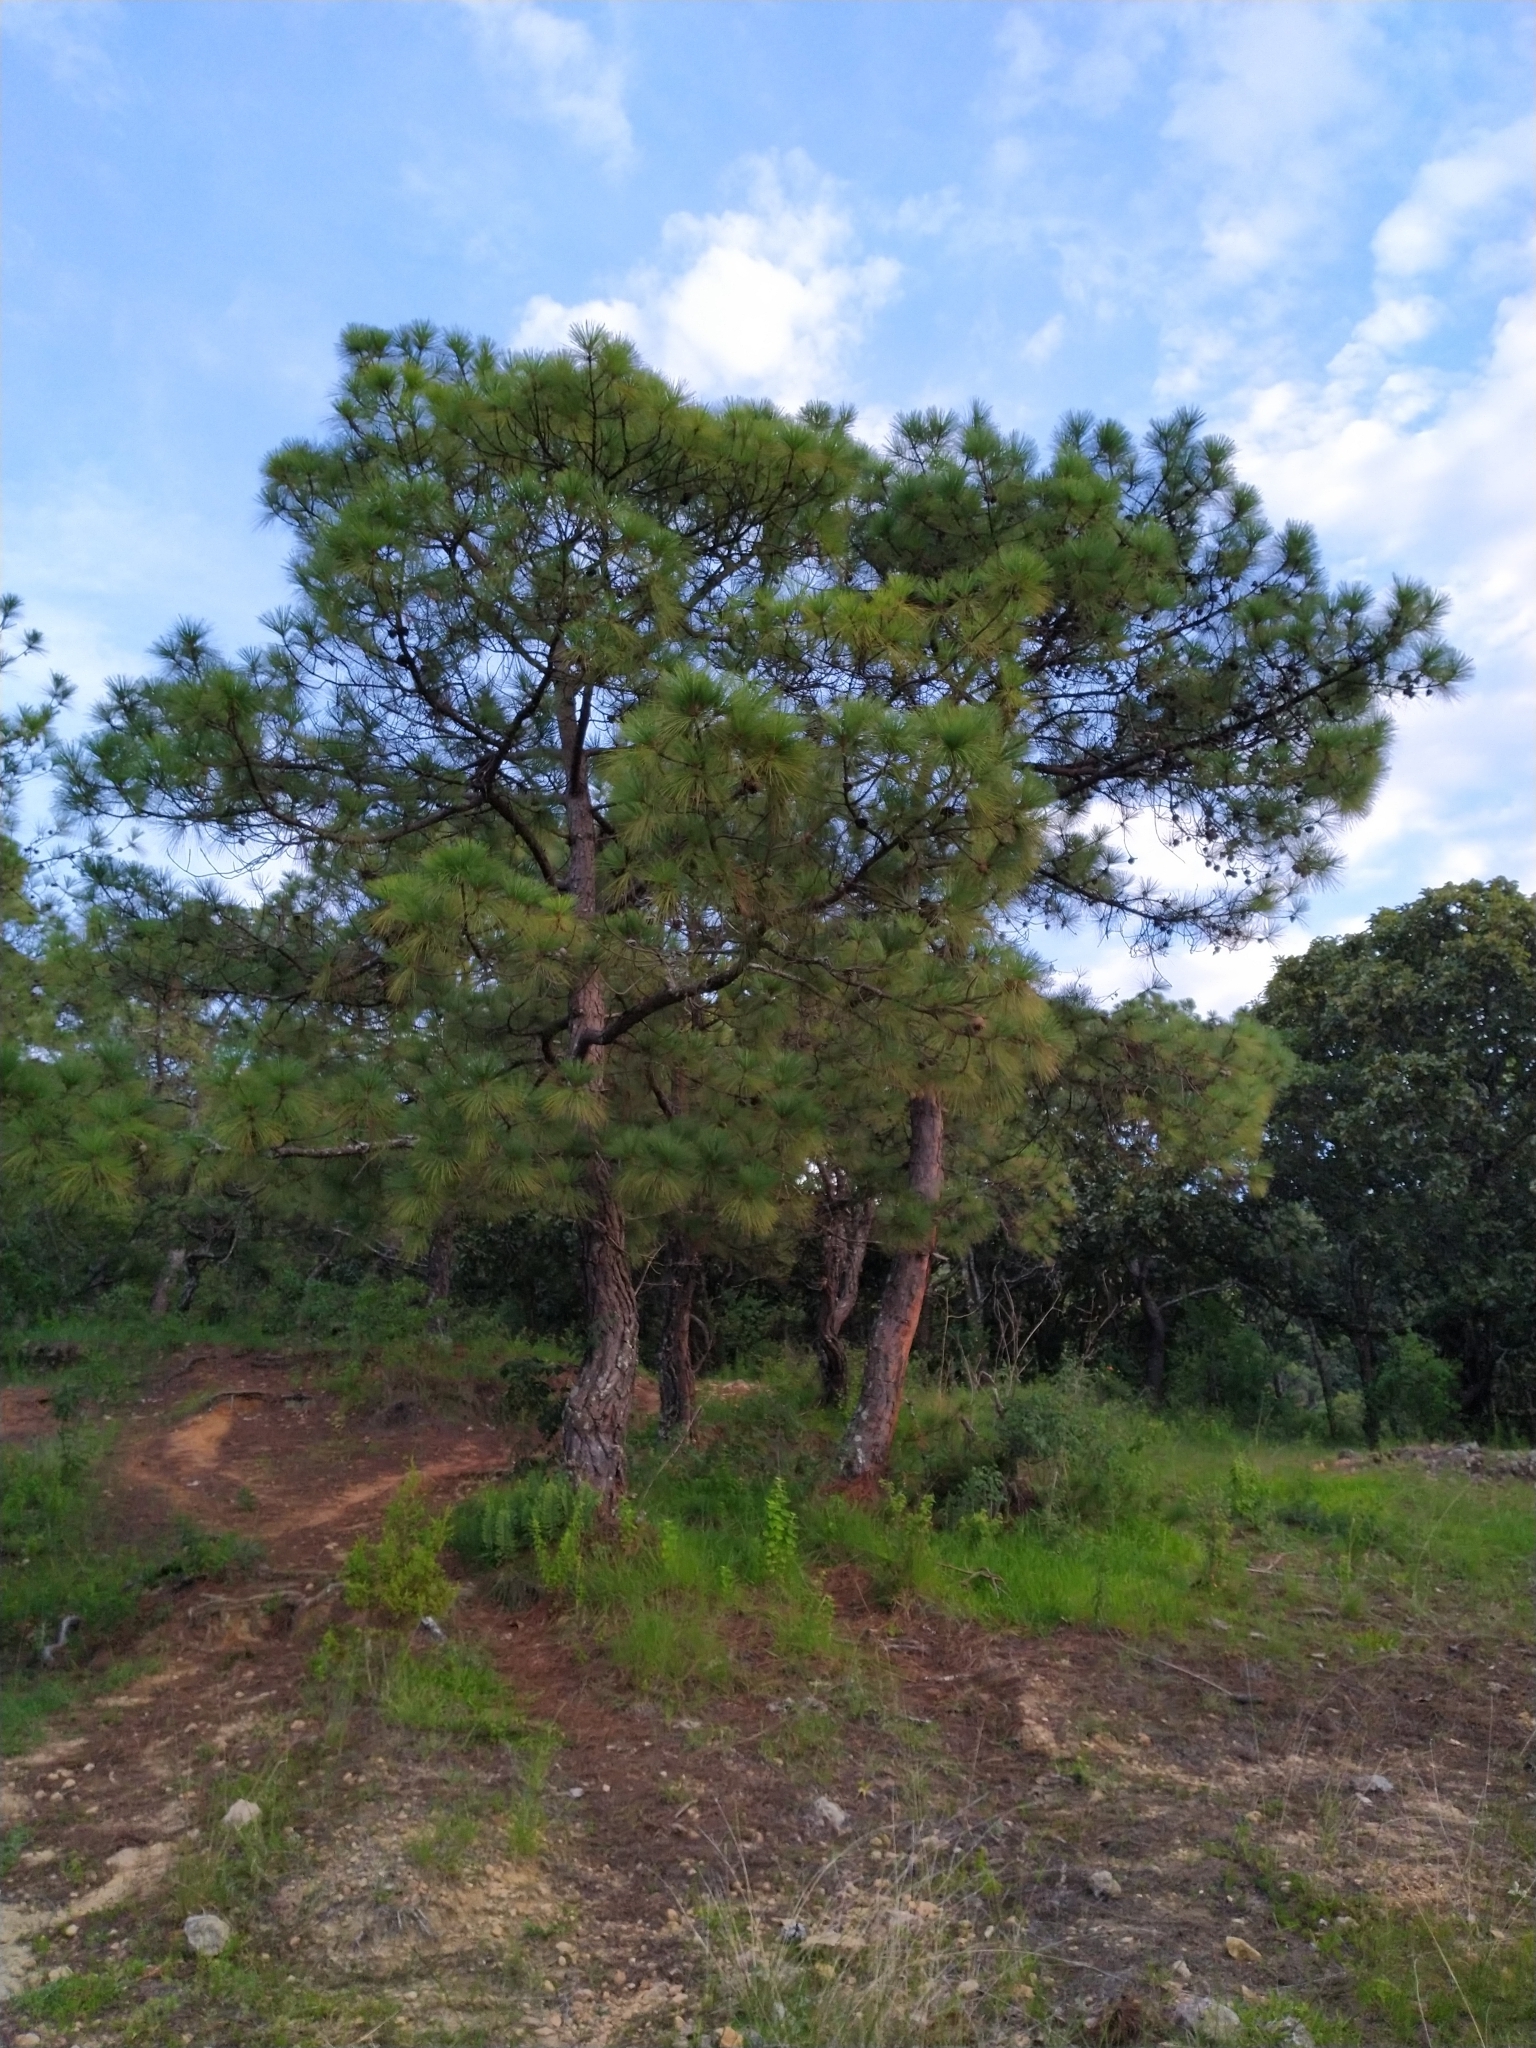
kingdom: Plantae
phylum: Tracheophyta
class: Pinopsida
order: Pinales
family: Pinaceae
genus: Pinus
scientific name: Pinus oocarpa
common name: Egg-cone pine
